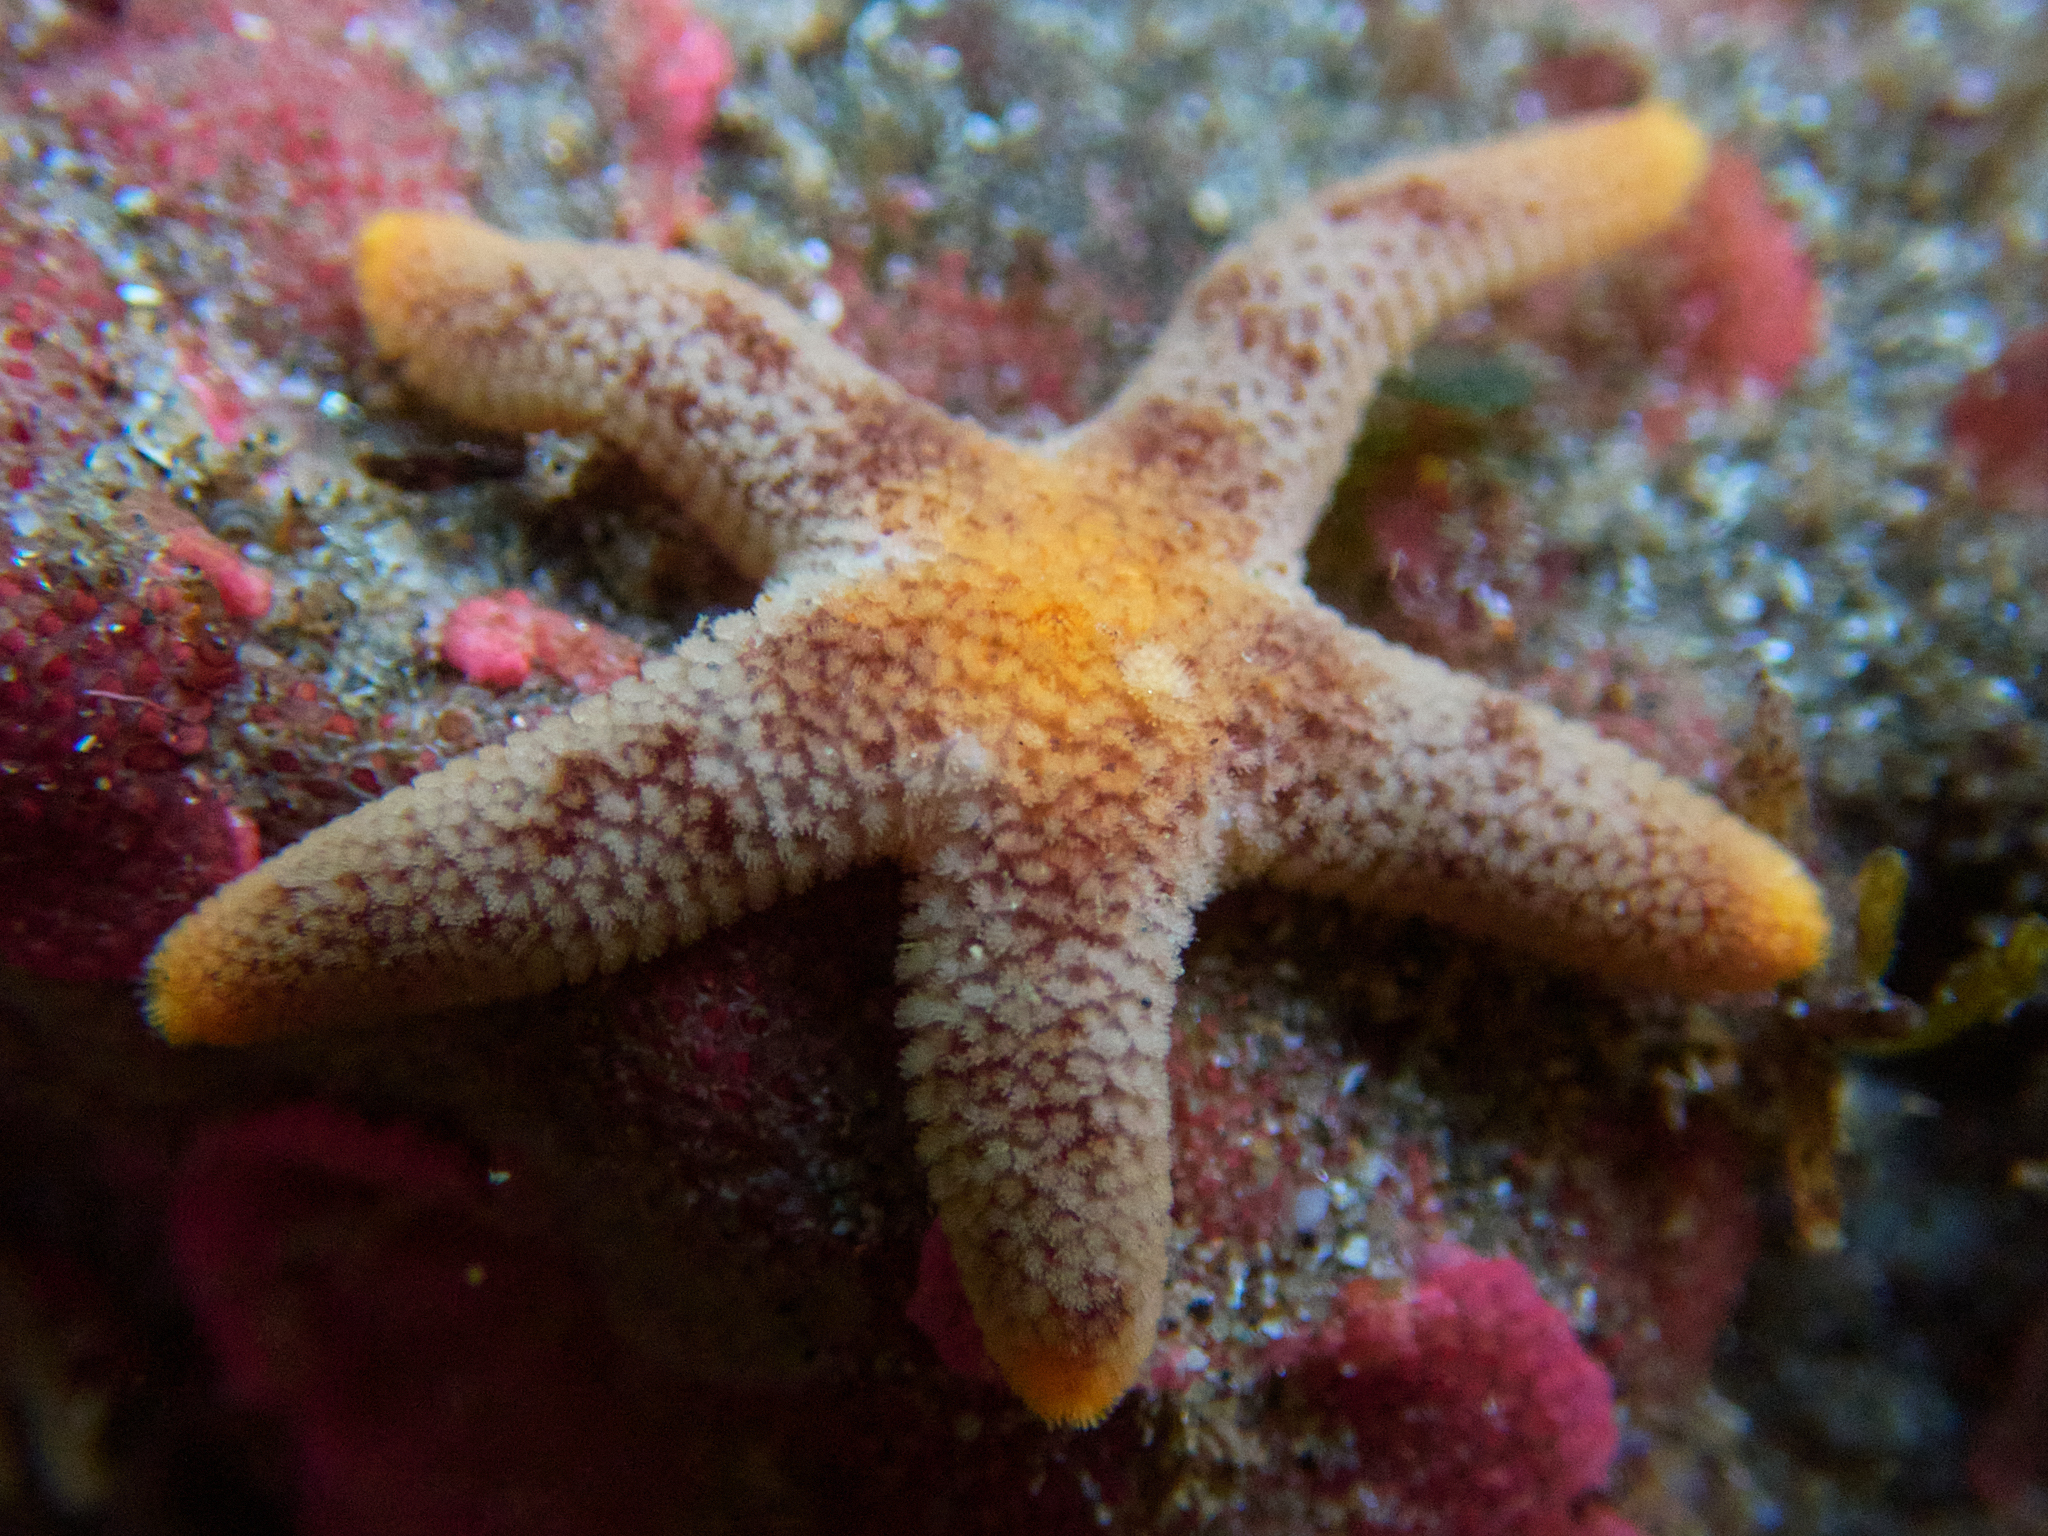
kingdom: Animalia
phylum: Echinodermata
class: Asteroidea
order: Spinulosida
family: Echinasteridae
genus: Henricia
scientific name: Henricia pumila
